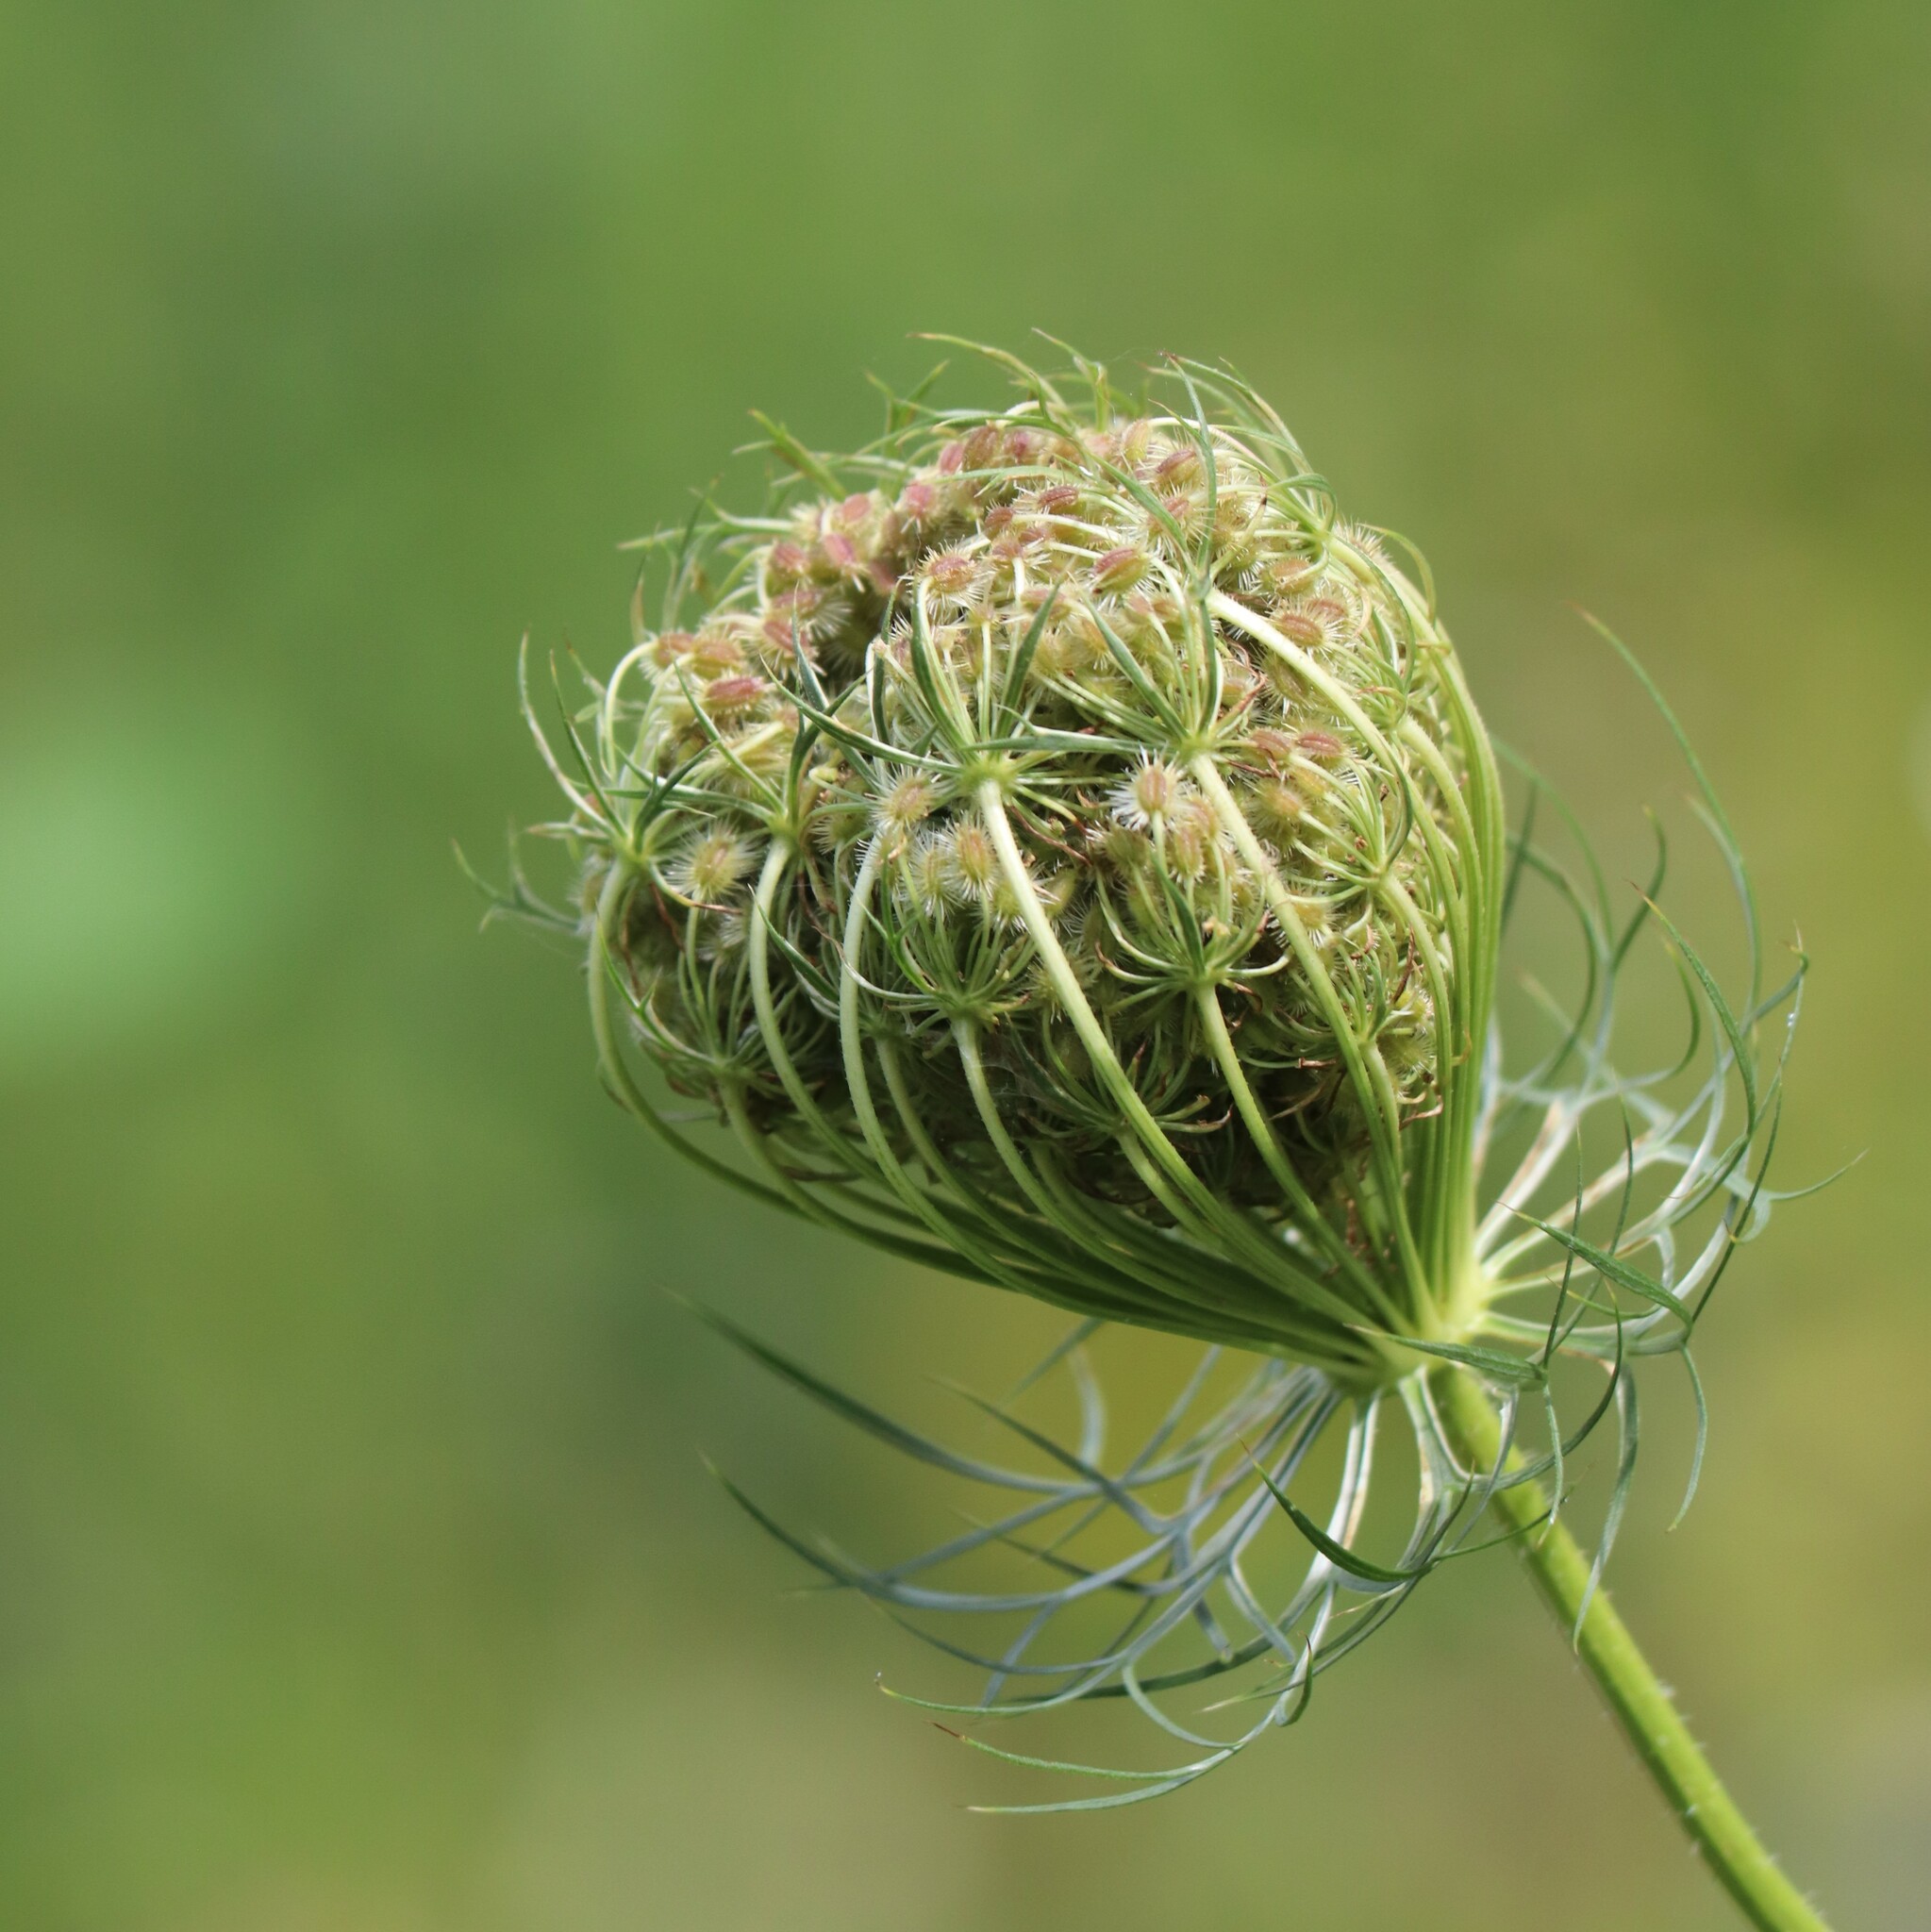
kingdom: Plantae
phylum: Tracheophyta
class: Magnoliopsida
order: Apiales
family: Apiaceae
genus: Daucus
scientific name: Daucus carota
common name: Wild carrot
